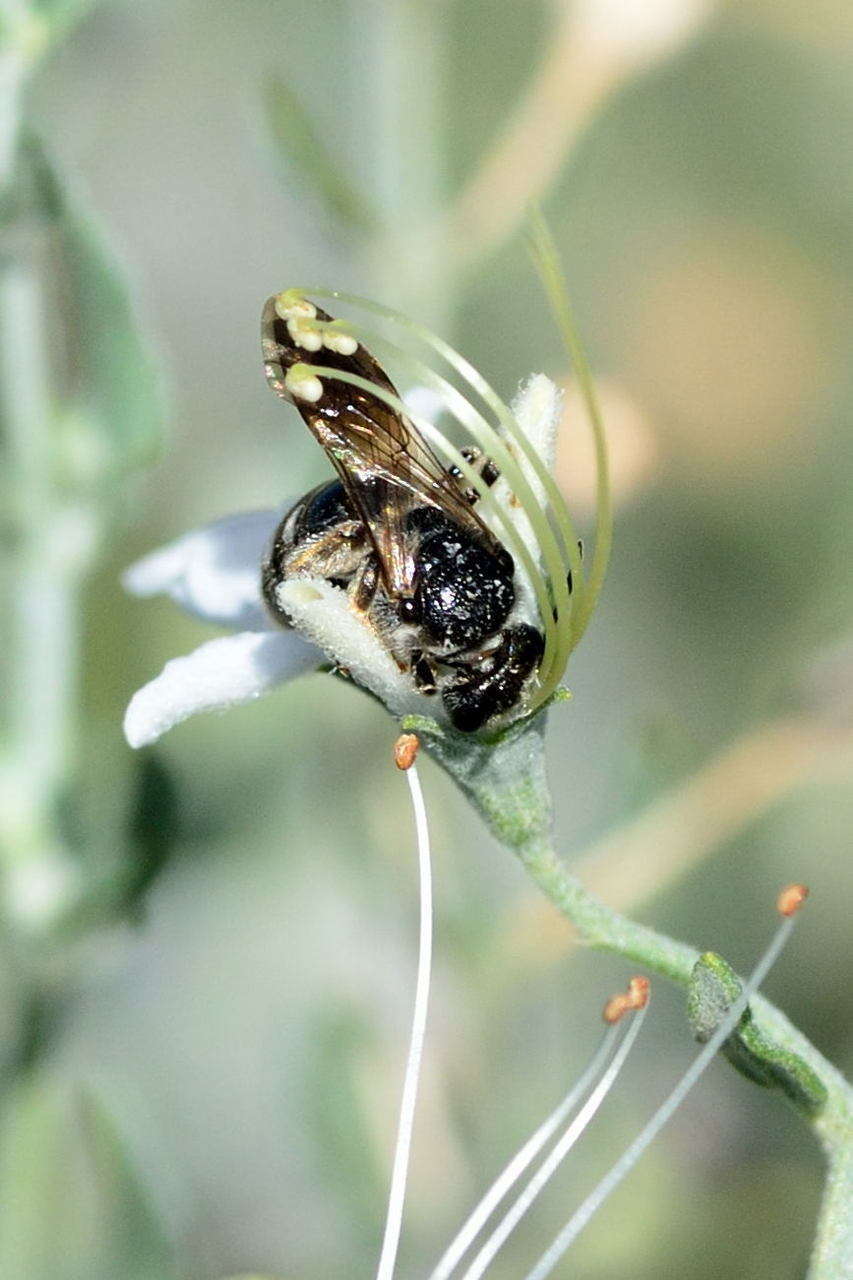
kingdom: Plantae
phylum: Tracheophyta
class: Magnoliopsida
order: Lamiales
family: Lamiaceae
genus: Teucrium
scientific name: Teucrium racemosum
